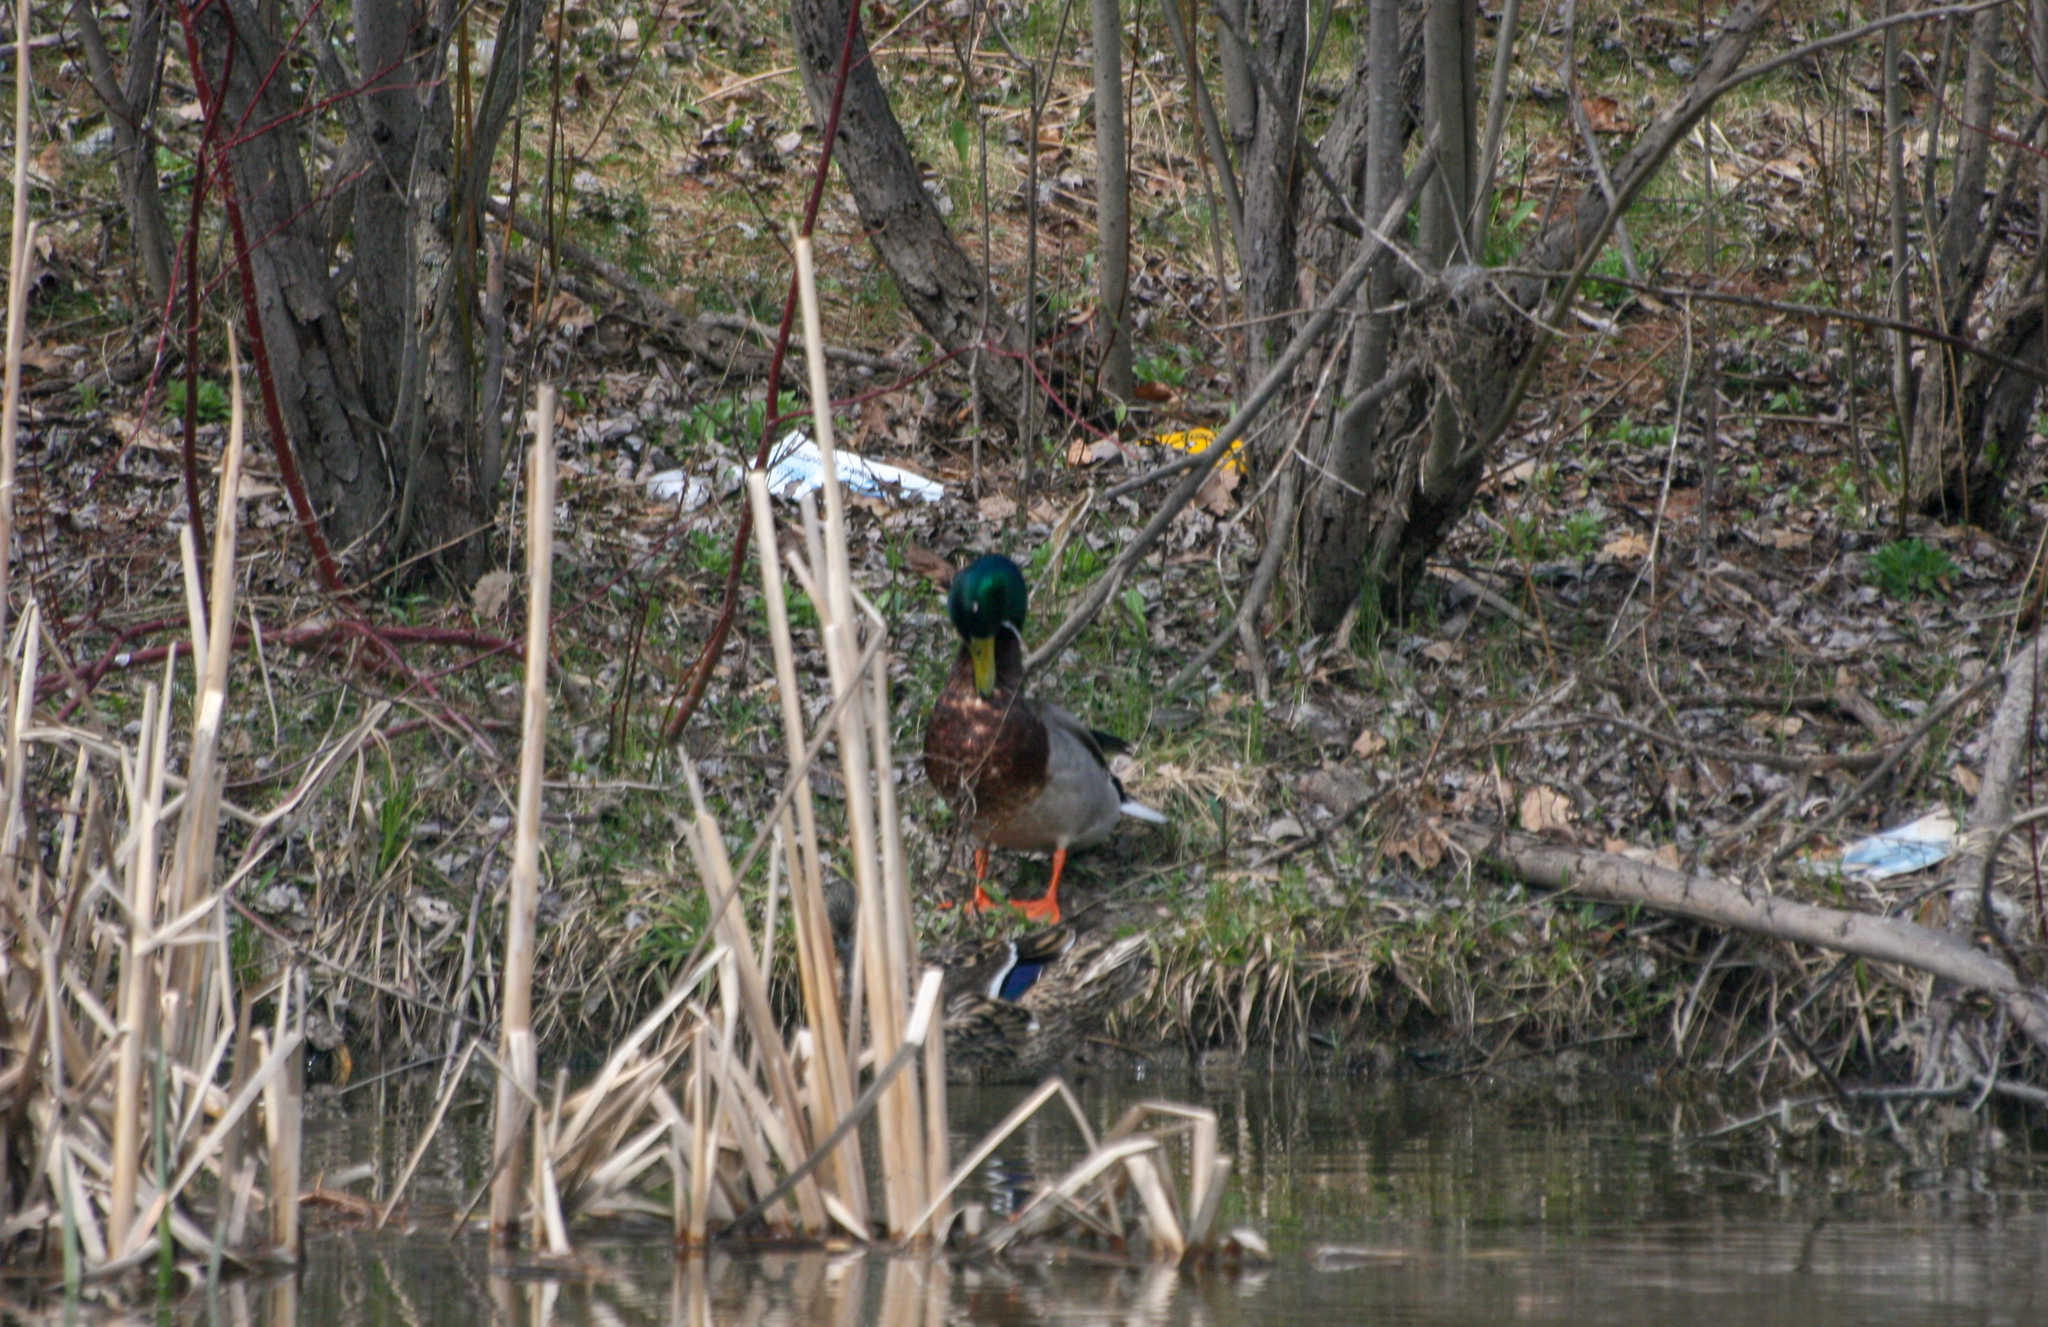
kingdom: Animalia
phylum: Chordata
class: Aves
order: Anseriformes
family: Anatidae
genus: Anas
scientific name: Anas platyrhynchos
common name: Mallard
